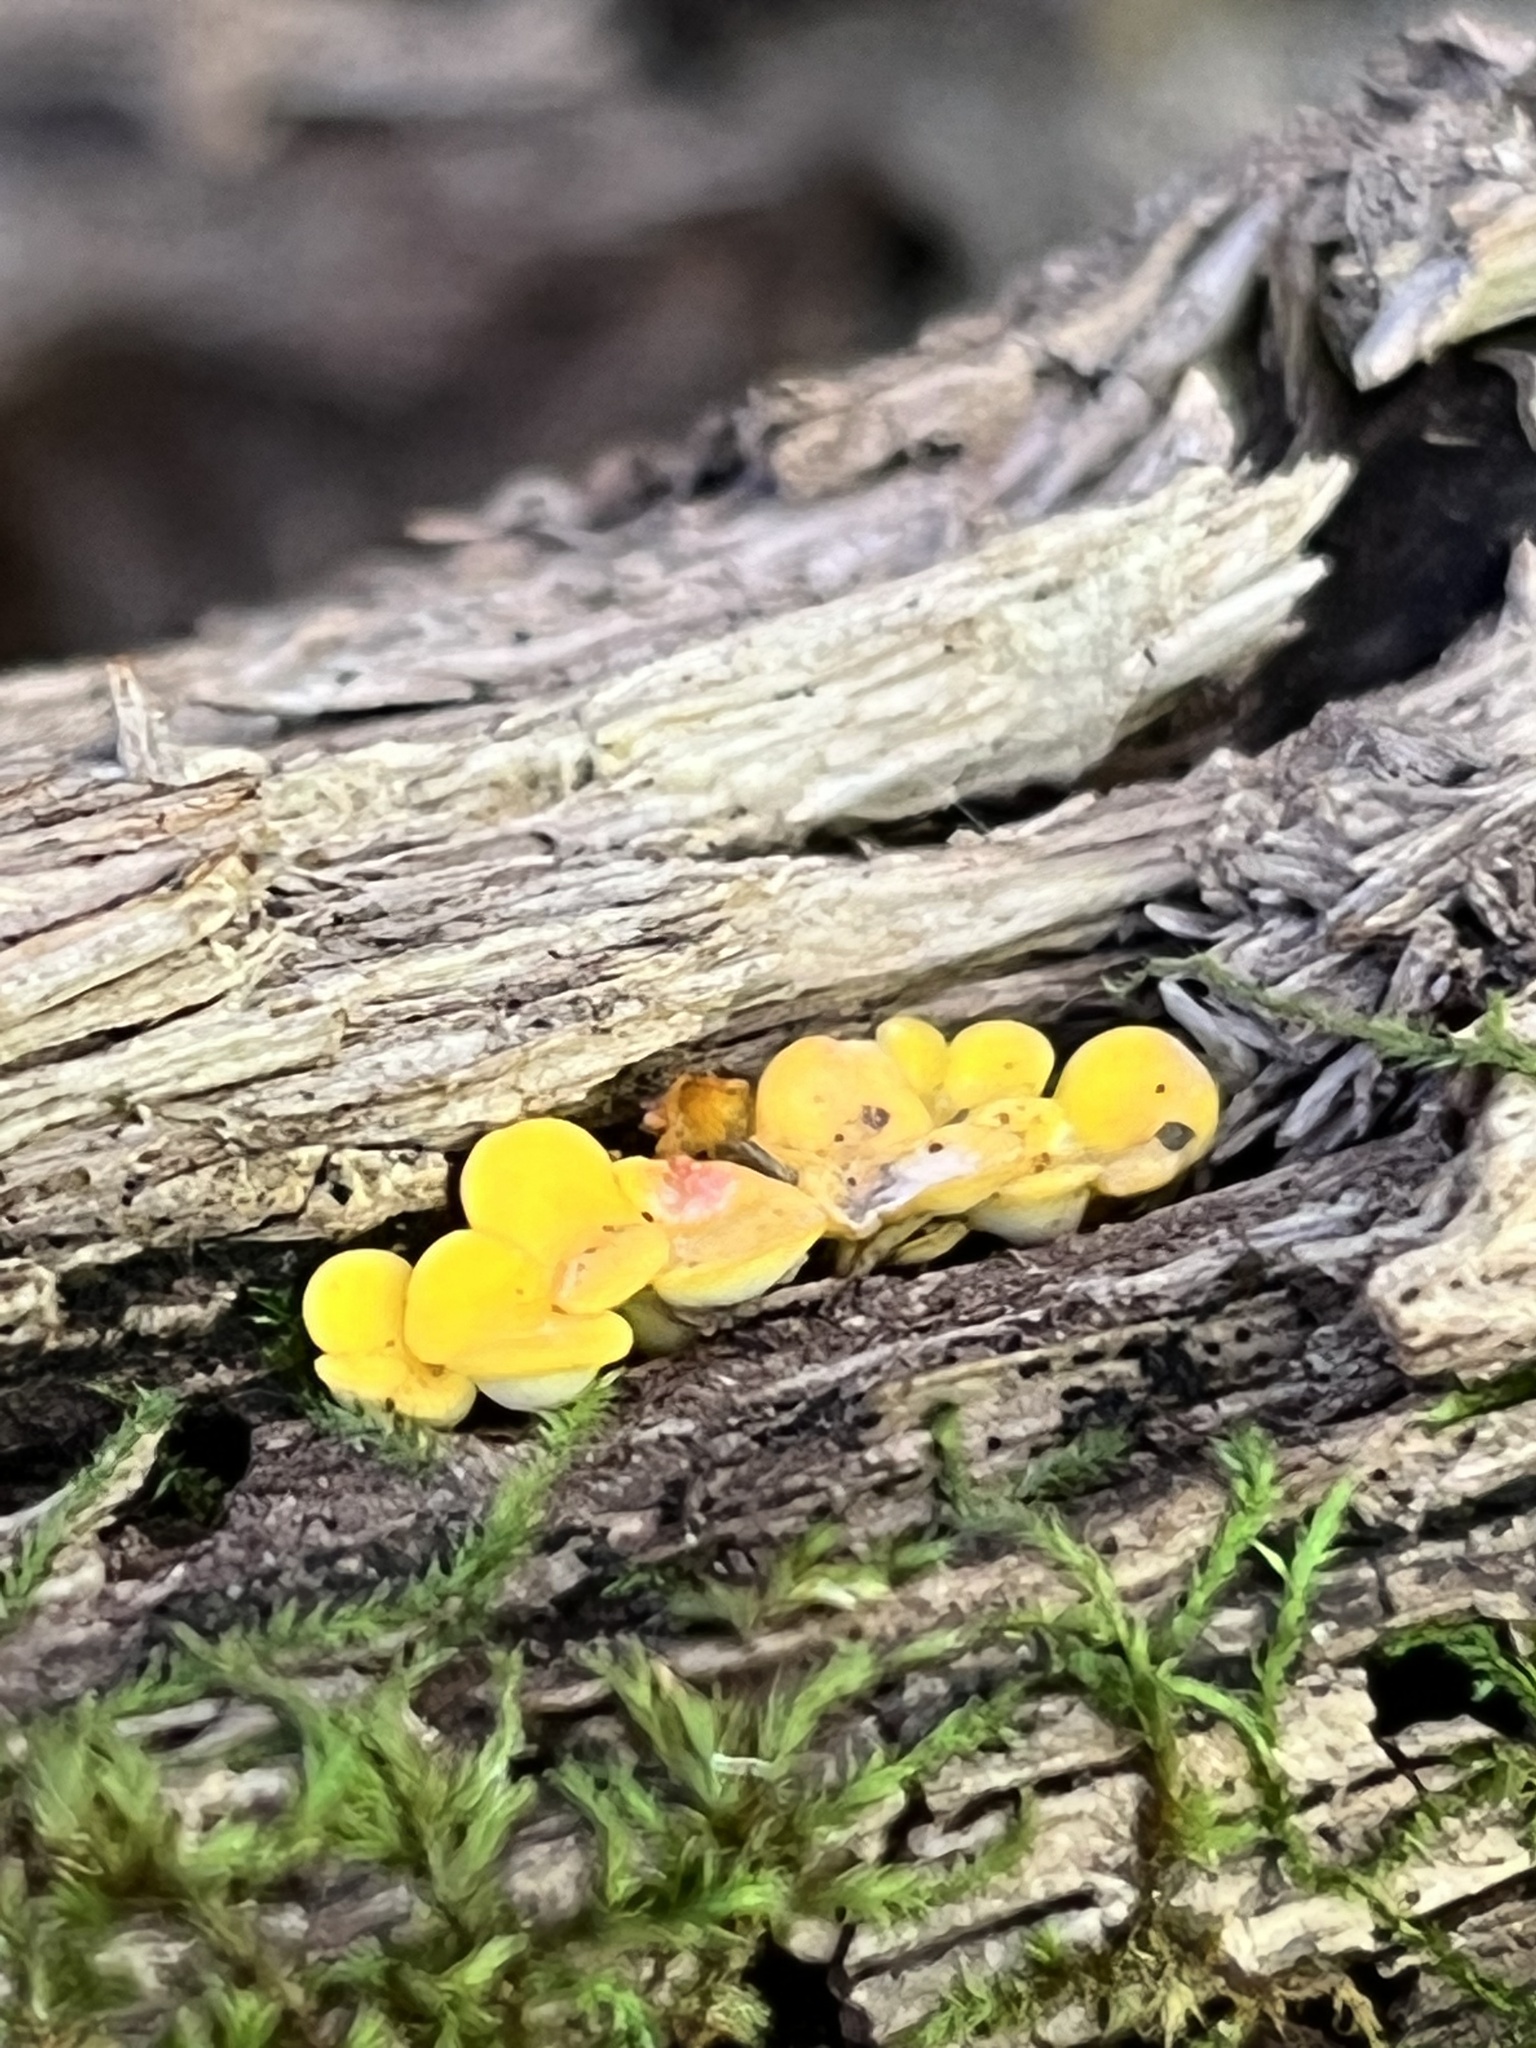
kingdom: Fungi
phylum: Ascomycota
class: Leotiomycetes
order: Helotiales
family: Pezizellaceae
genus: Calycina
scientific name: Calycina citrina
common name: Yellow fairy cups
